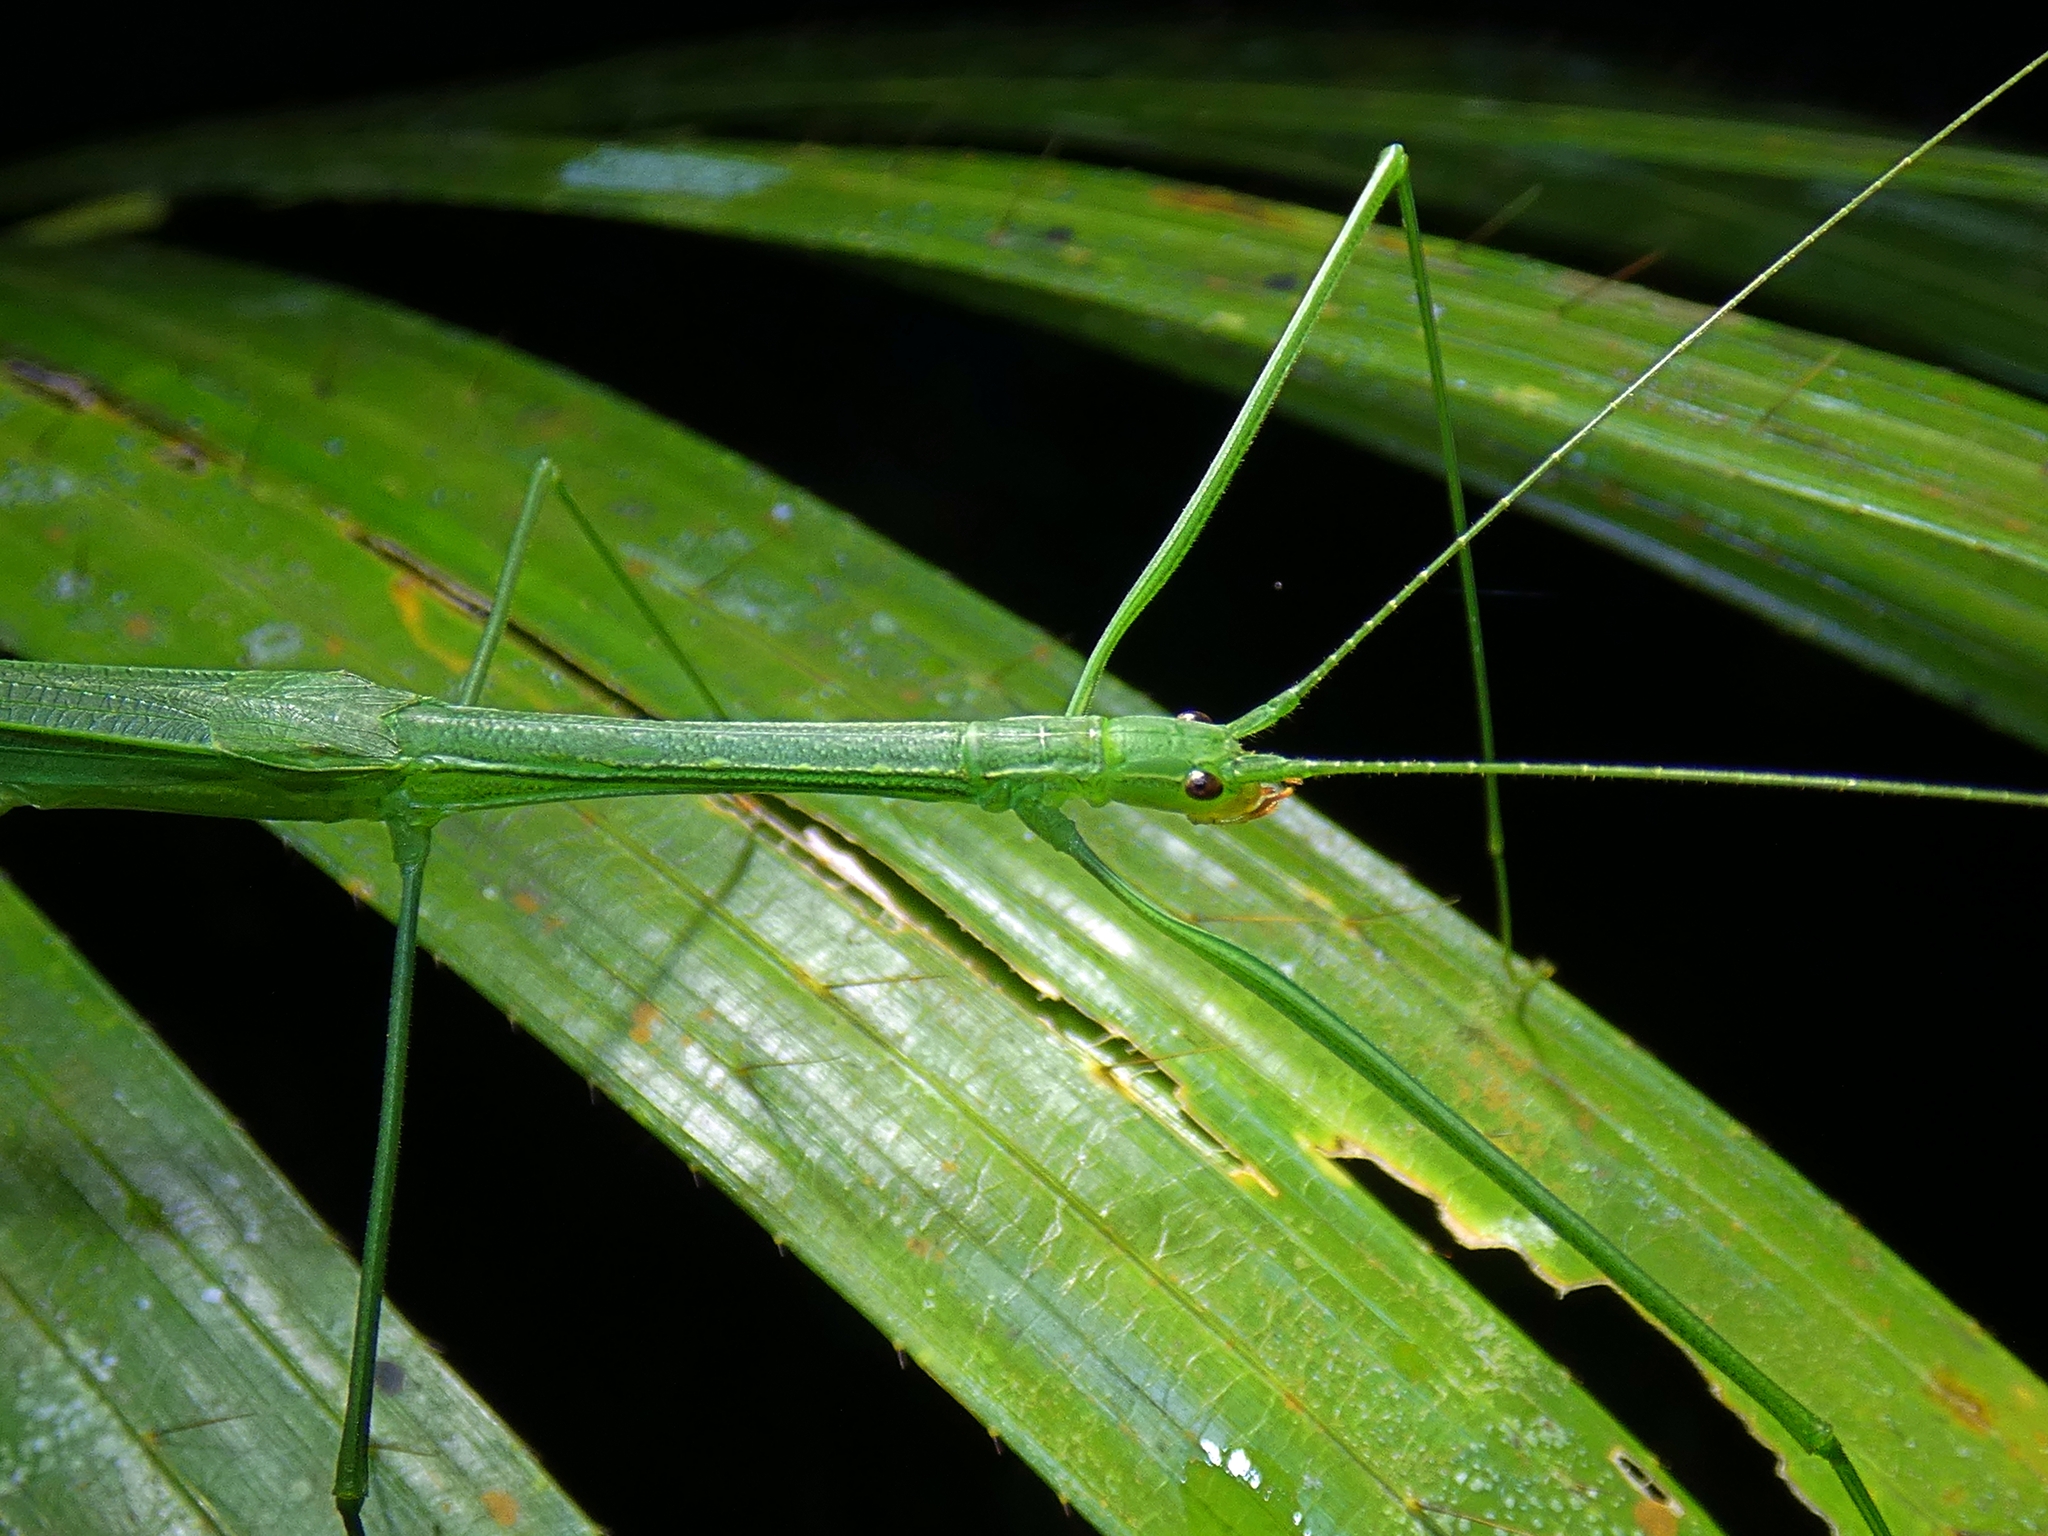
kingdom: Animalia
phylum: Arthropoda
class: Insecta
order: Phasmida
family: Lonchodidae
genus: Sipyloidea
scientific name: Sipyloidea rentzi
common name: Rentz's sipyloidea stick-insect
